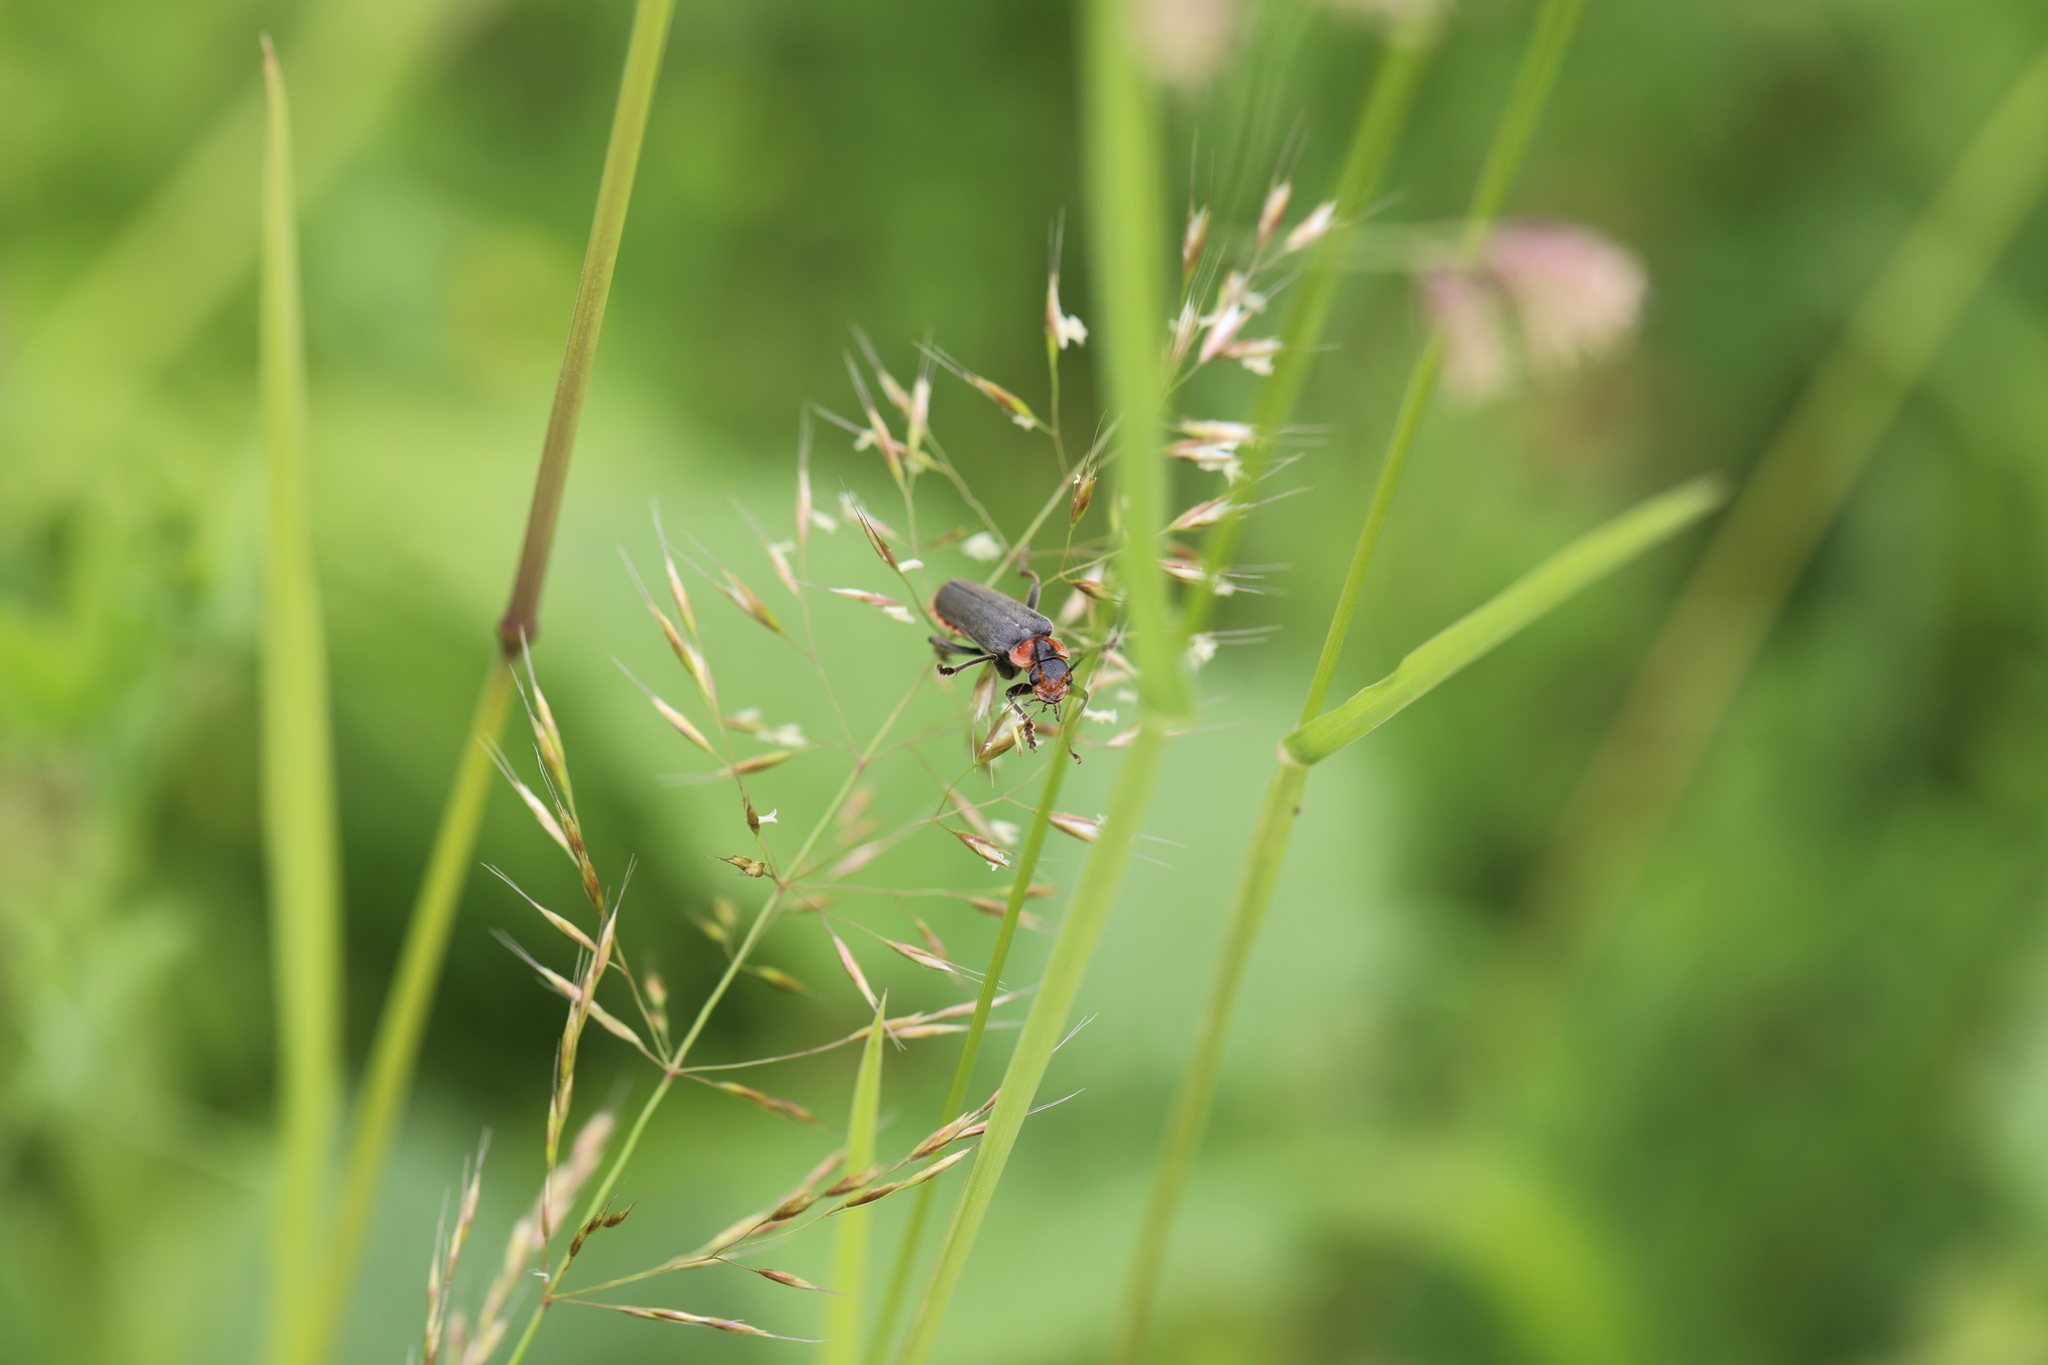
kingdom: Animalia
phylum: Arthropoda
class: Insecta
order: Coleoptera
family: Cantharidae
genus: Cantharis
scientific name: Cantharis fusca
